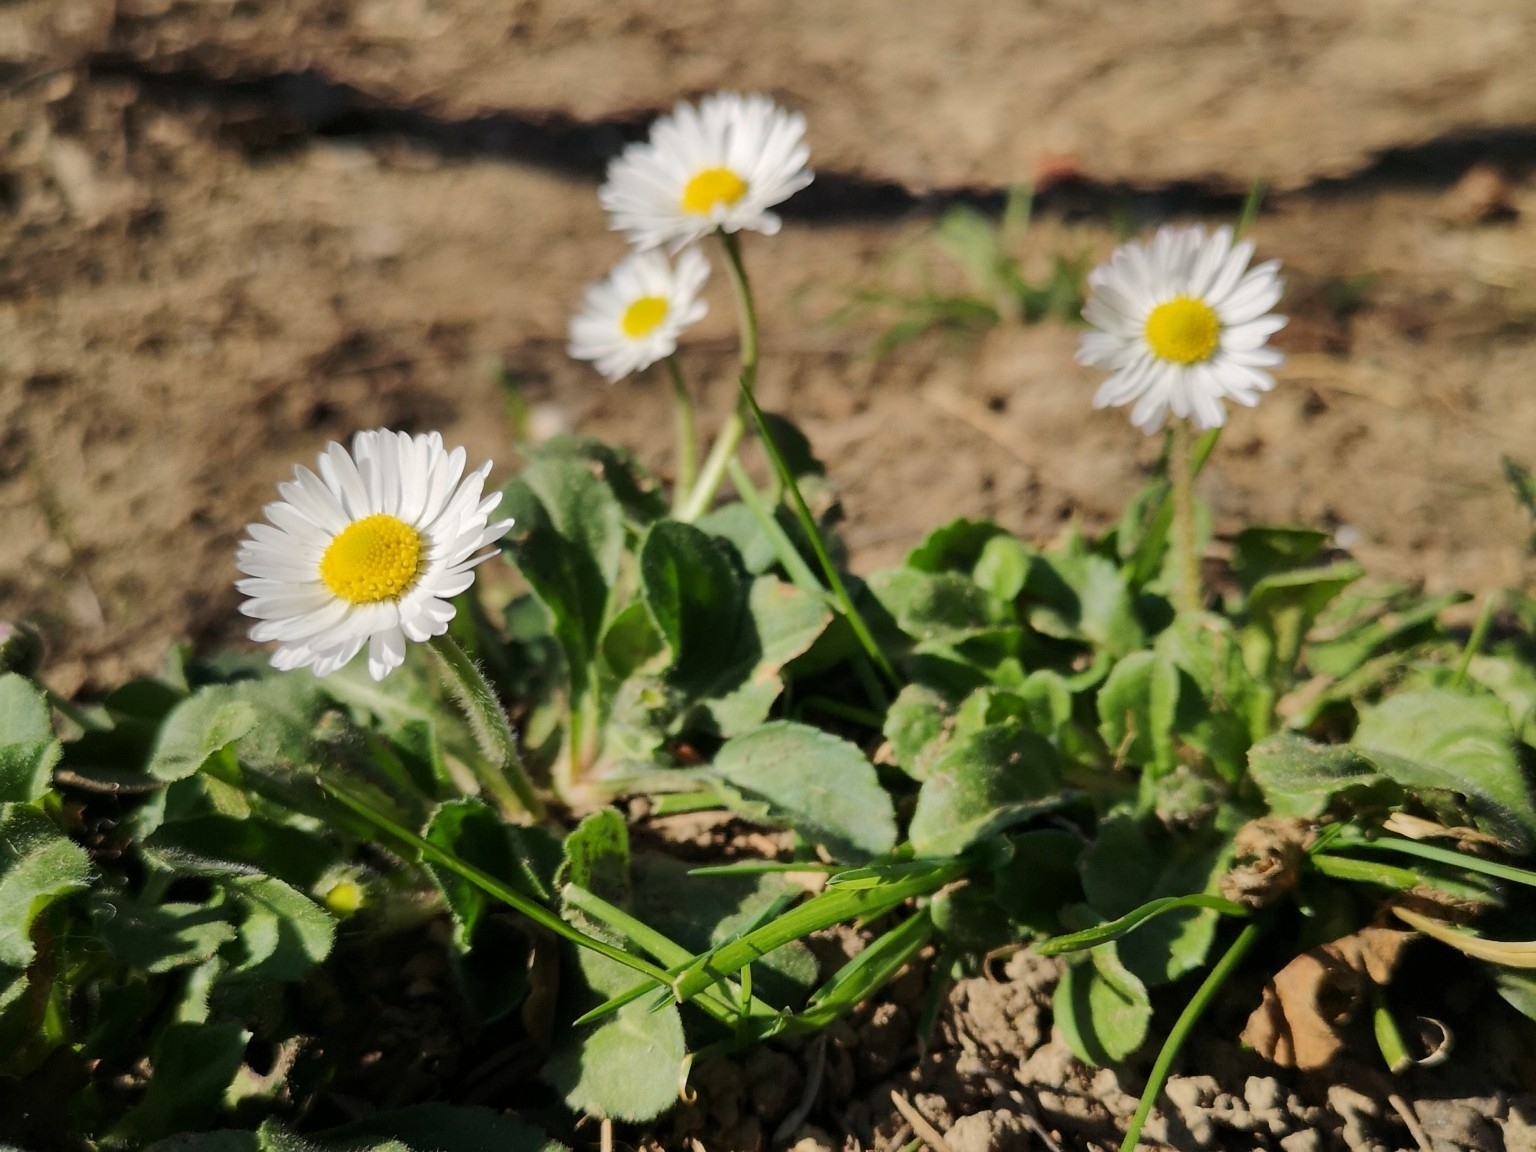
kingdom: Plantae
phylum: Tracheophyta
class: Magnoliopsida
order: Asterales
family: Asteraceae
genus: Bellis
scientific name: Bellis perennis
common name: Lawndaisy
